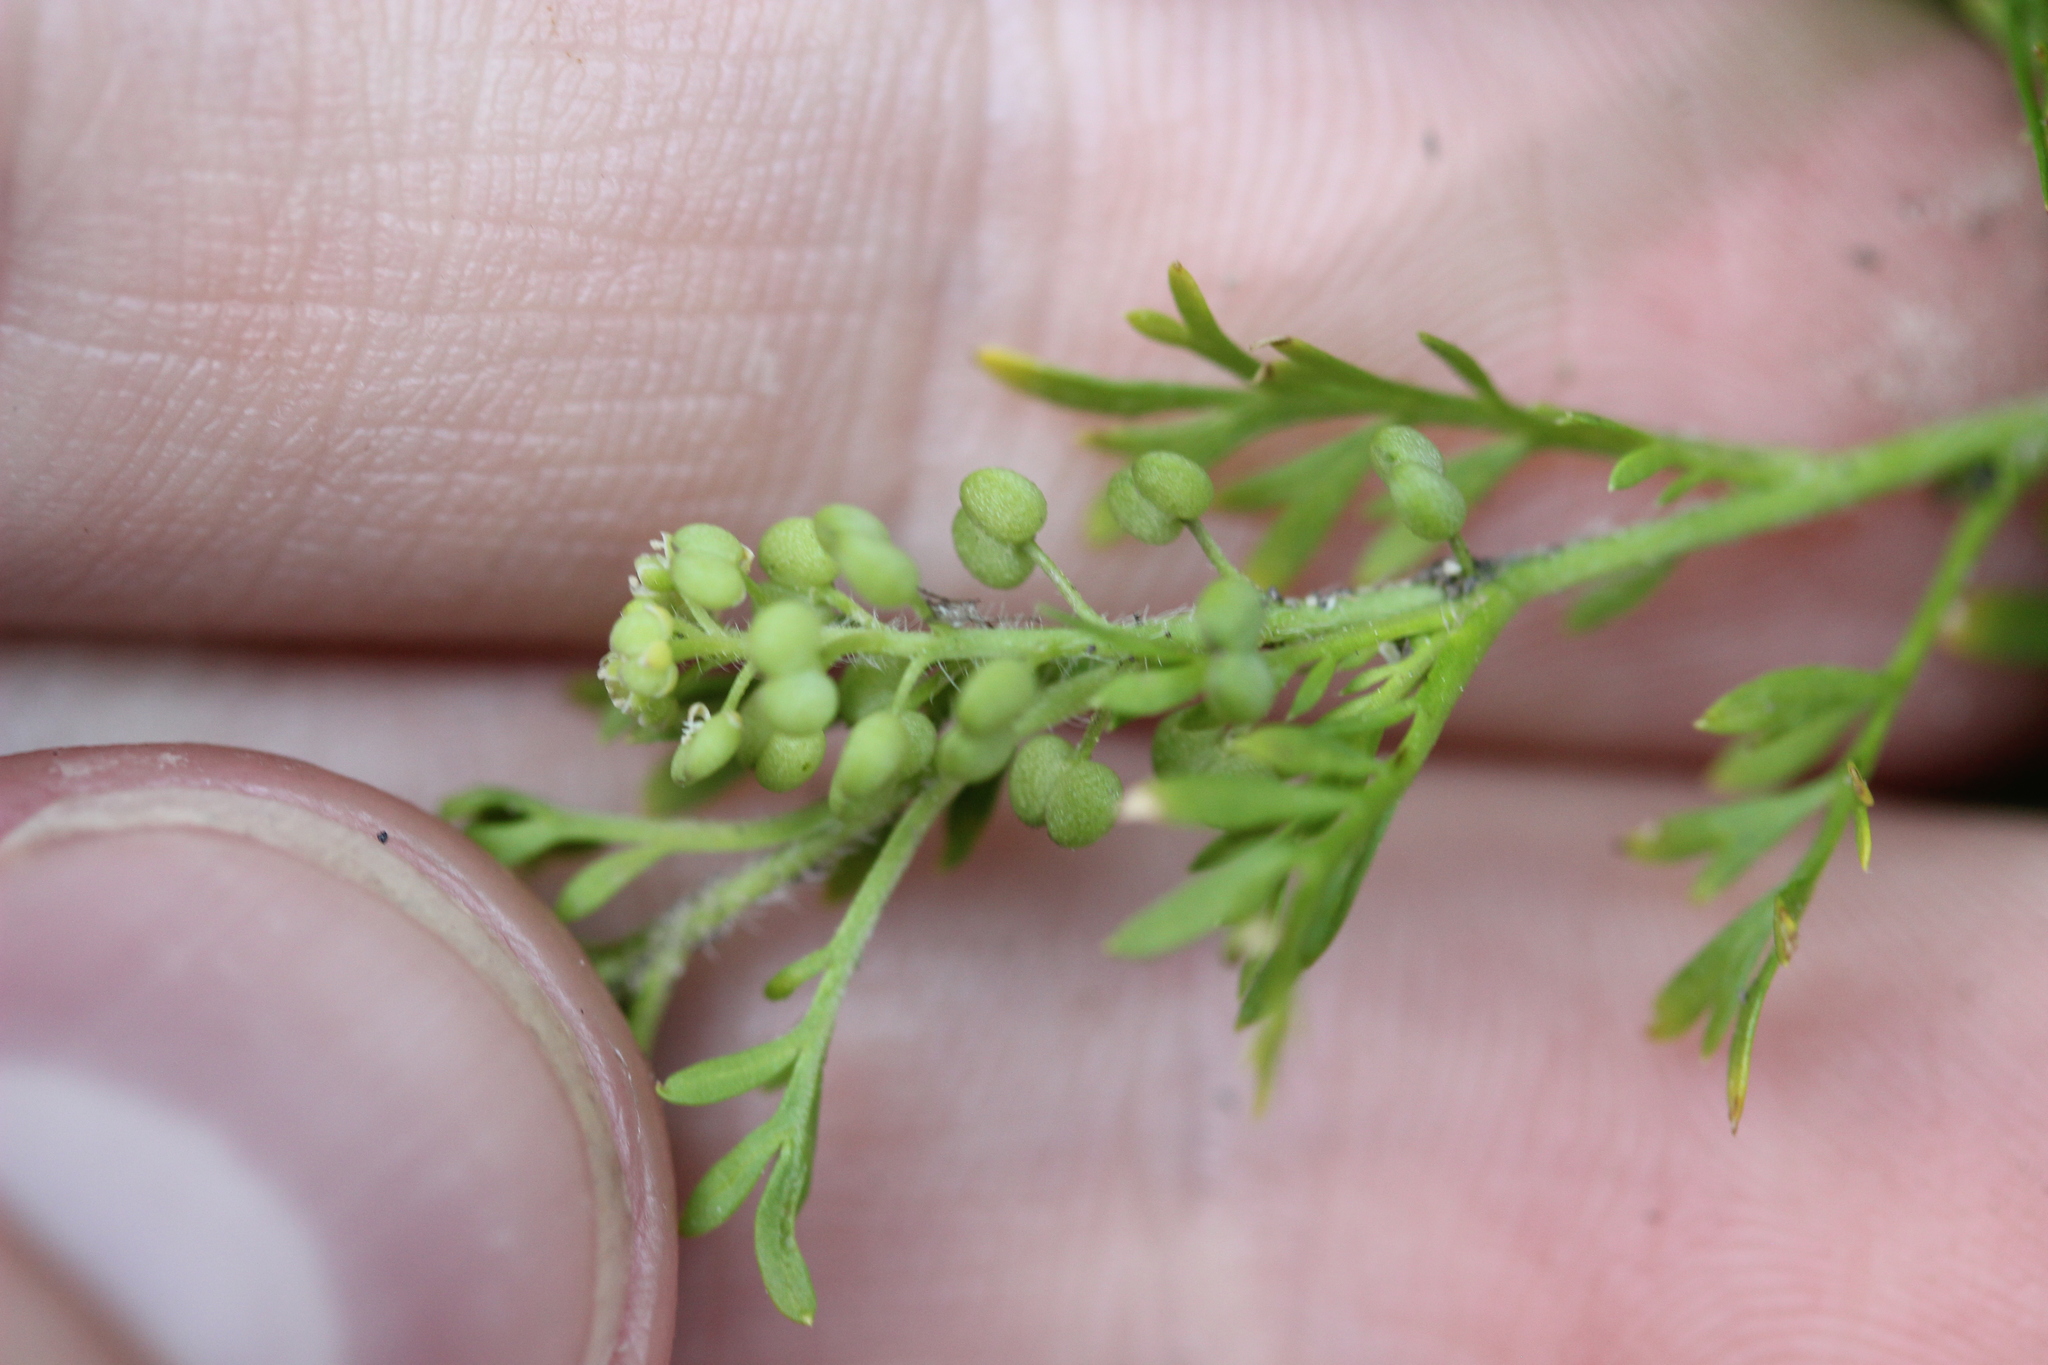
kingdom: Plantae
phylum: Tracheophyta
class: Magnoliopsida
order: Brassicales
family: Brassicaceae
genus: Lepidium
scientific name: Lepidium didymum
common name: Lesser swinecress
